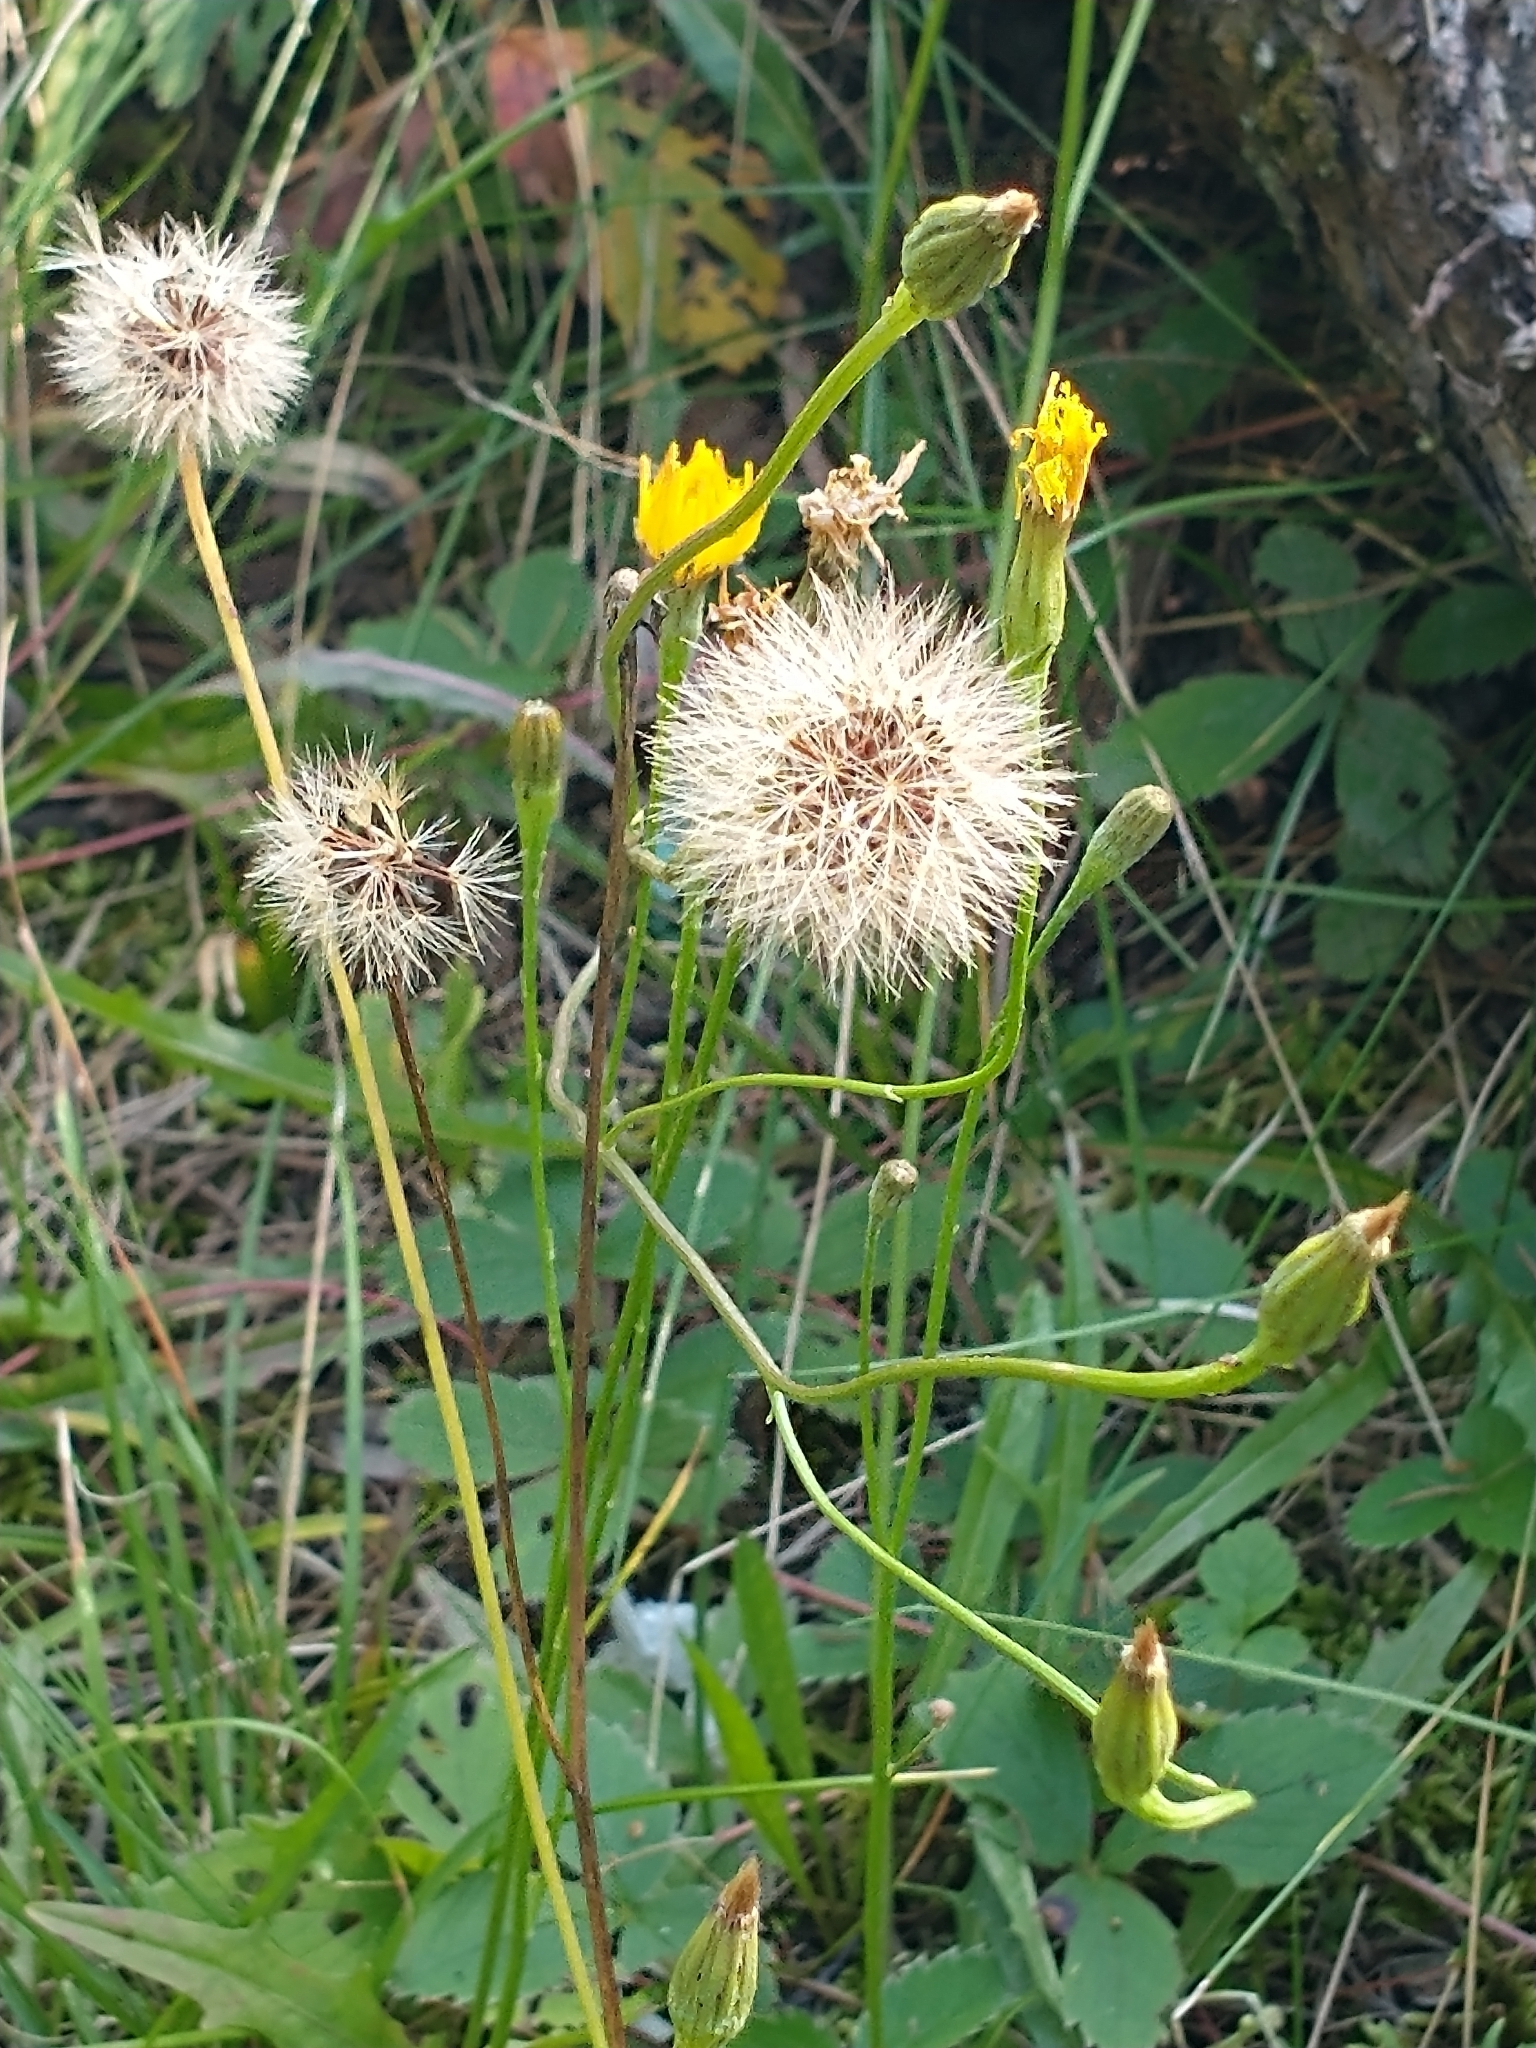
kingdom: Plantae
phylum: Tracheophyta
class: Magnoliopsida
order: Asterales
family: Asteraceae
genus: Scorzoneroides
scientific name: Scorzoneroides autumnalis
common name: Autumn hawkbit
